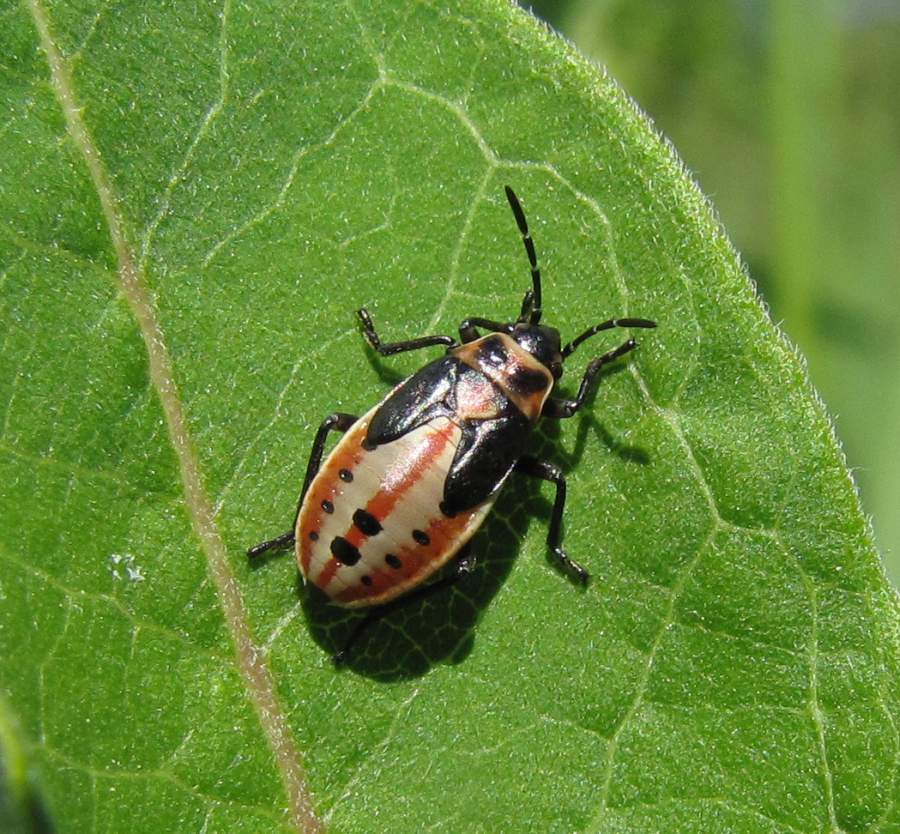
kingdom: Animalia
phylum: Arthropoda
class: Insecta
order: Hemiptera
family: Lygaeidae
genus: Lygaeus
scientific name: Lygaeus kalmii
